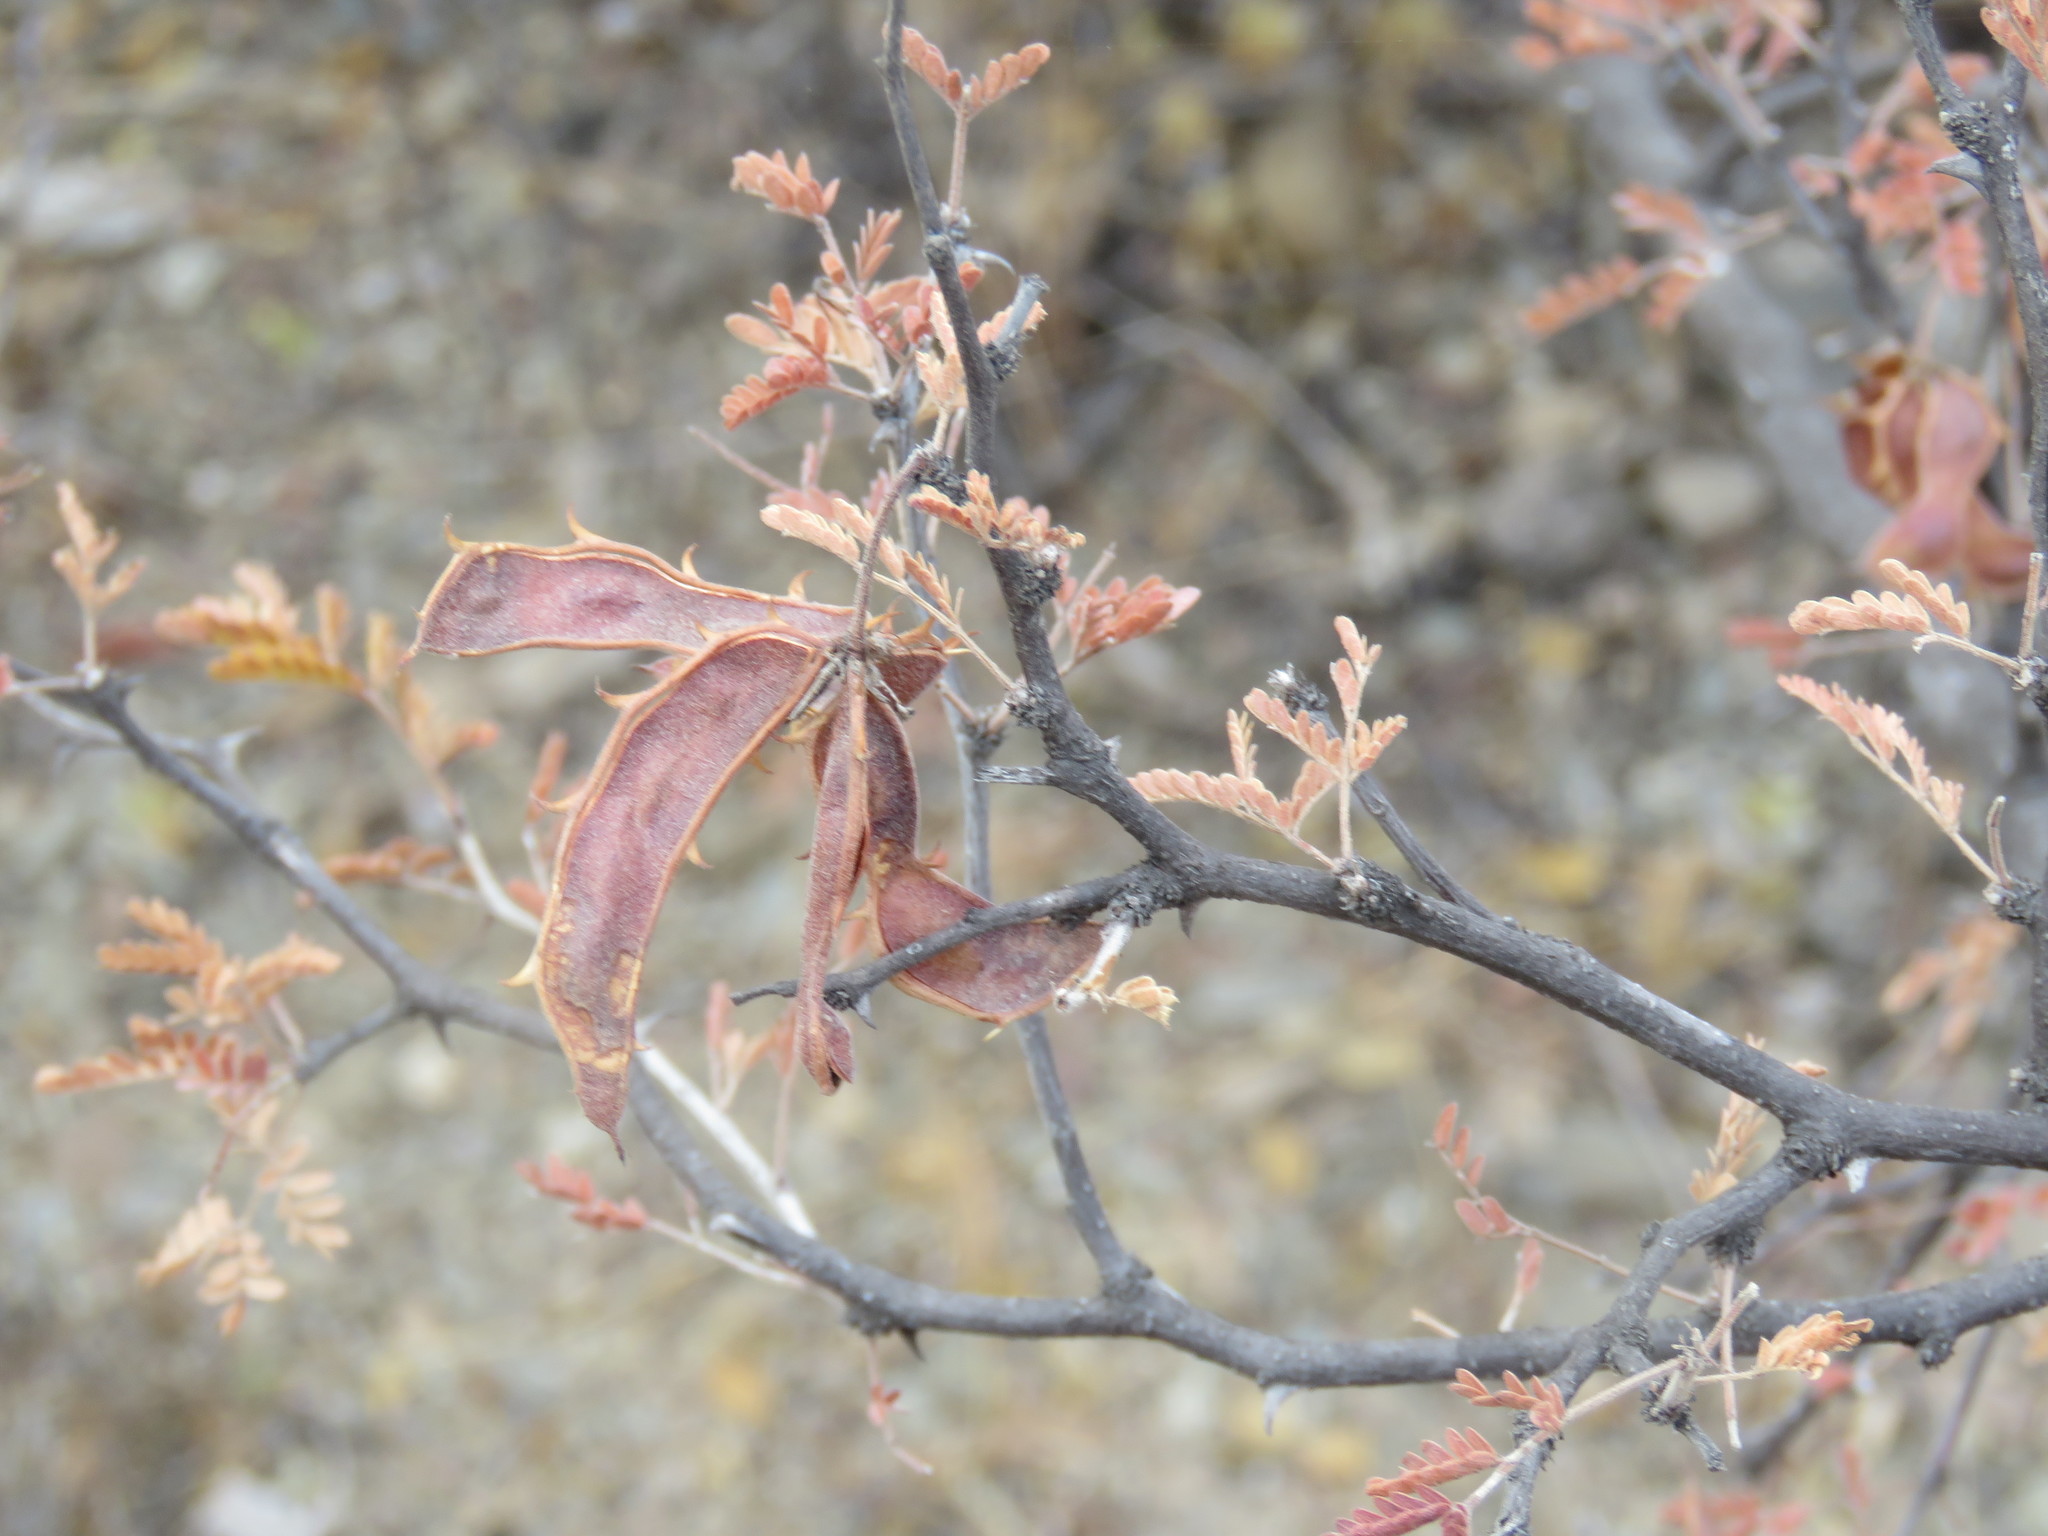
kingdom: Plantae
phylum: Tracheophyta
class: Magnoliopsida
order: Fabales
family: Fabaceae
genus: Mimosa
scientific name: Mimosa biuncifera
